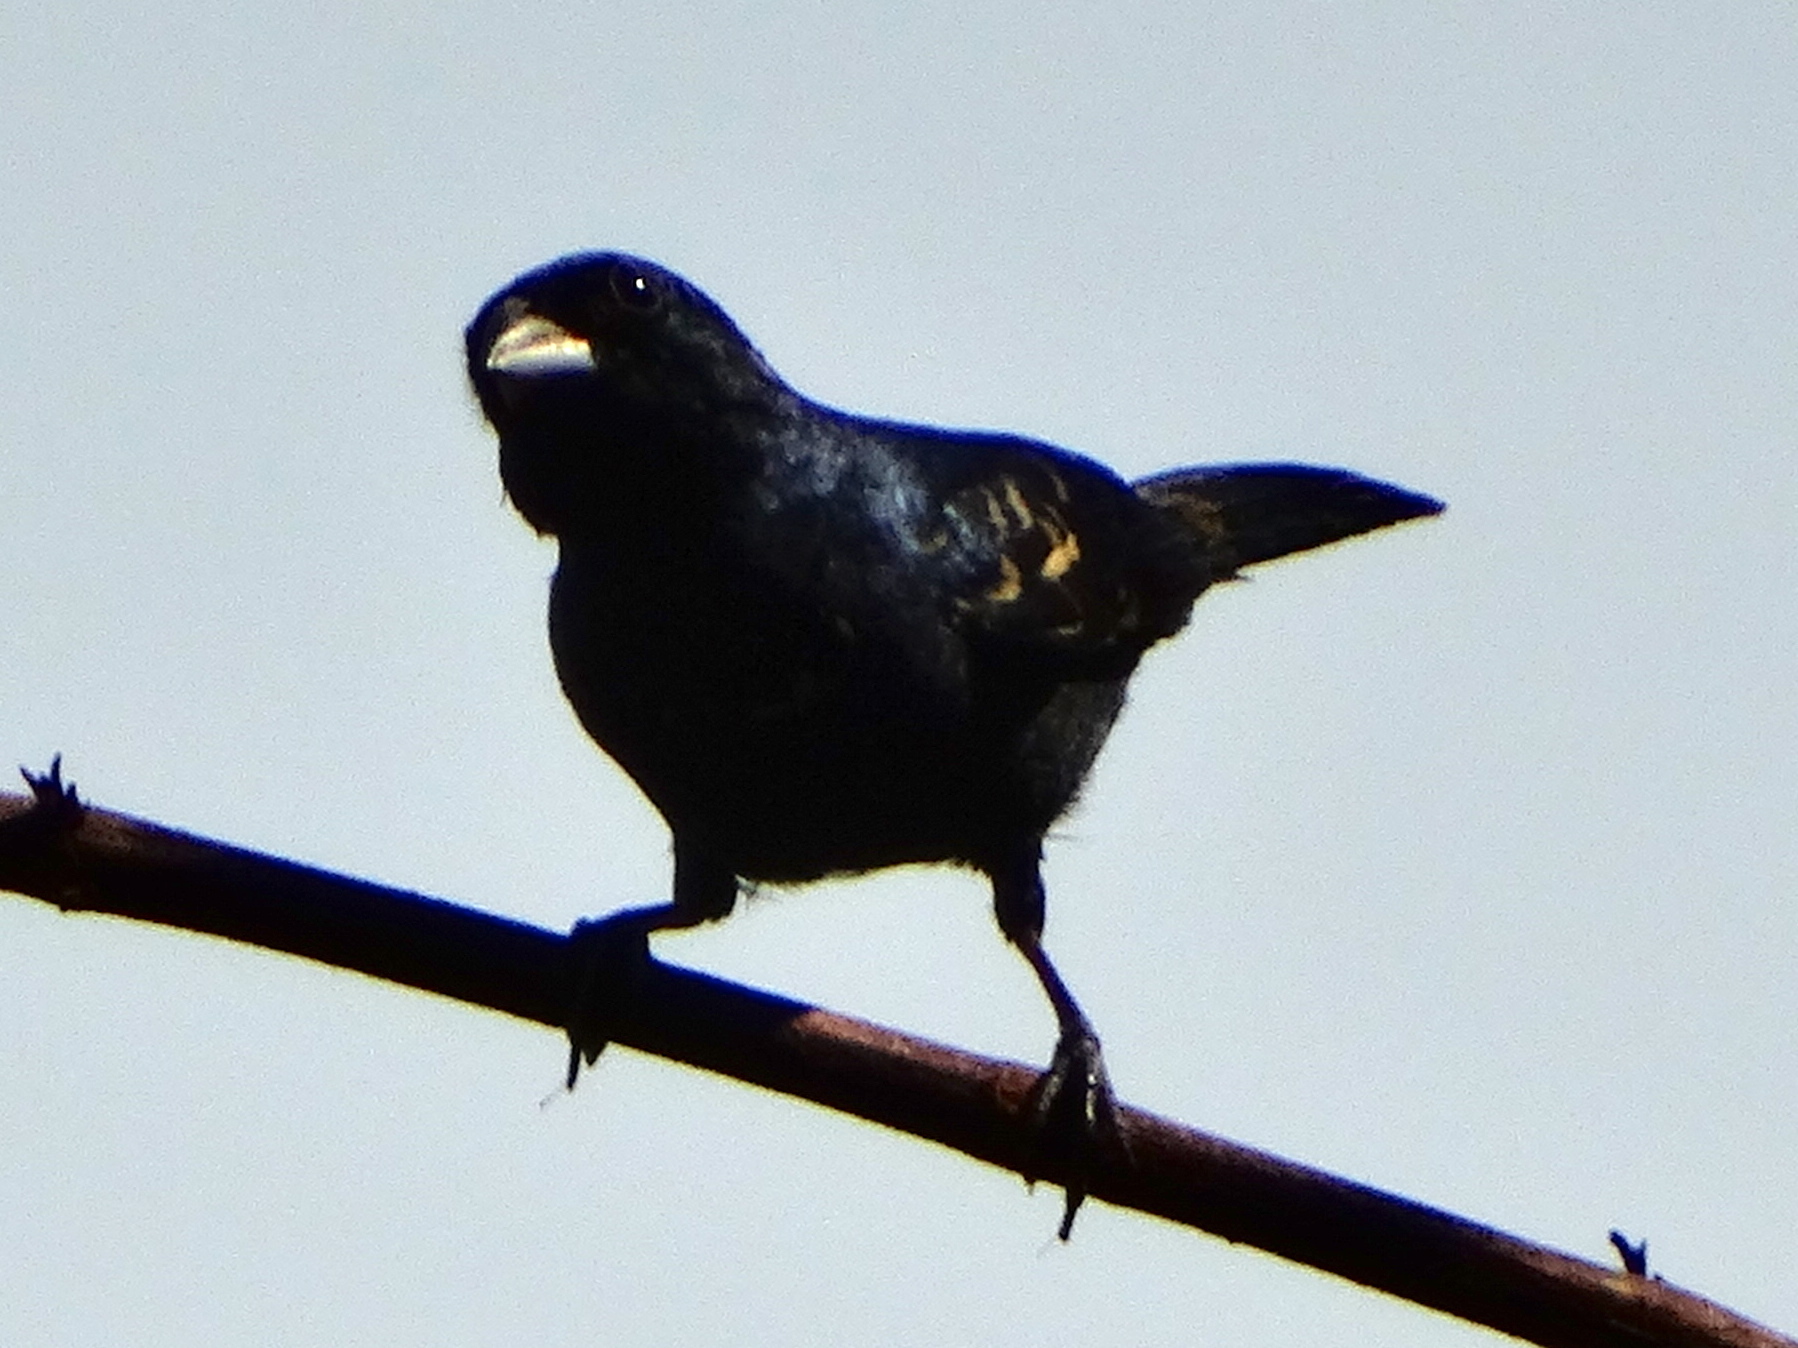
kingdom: Animalia
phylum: Chordata
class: Aves
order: Passeriformes
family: Thraupidae
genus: Volatinia
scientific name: Volatinia jacarina
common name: Blue-black grassquit
